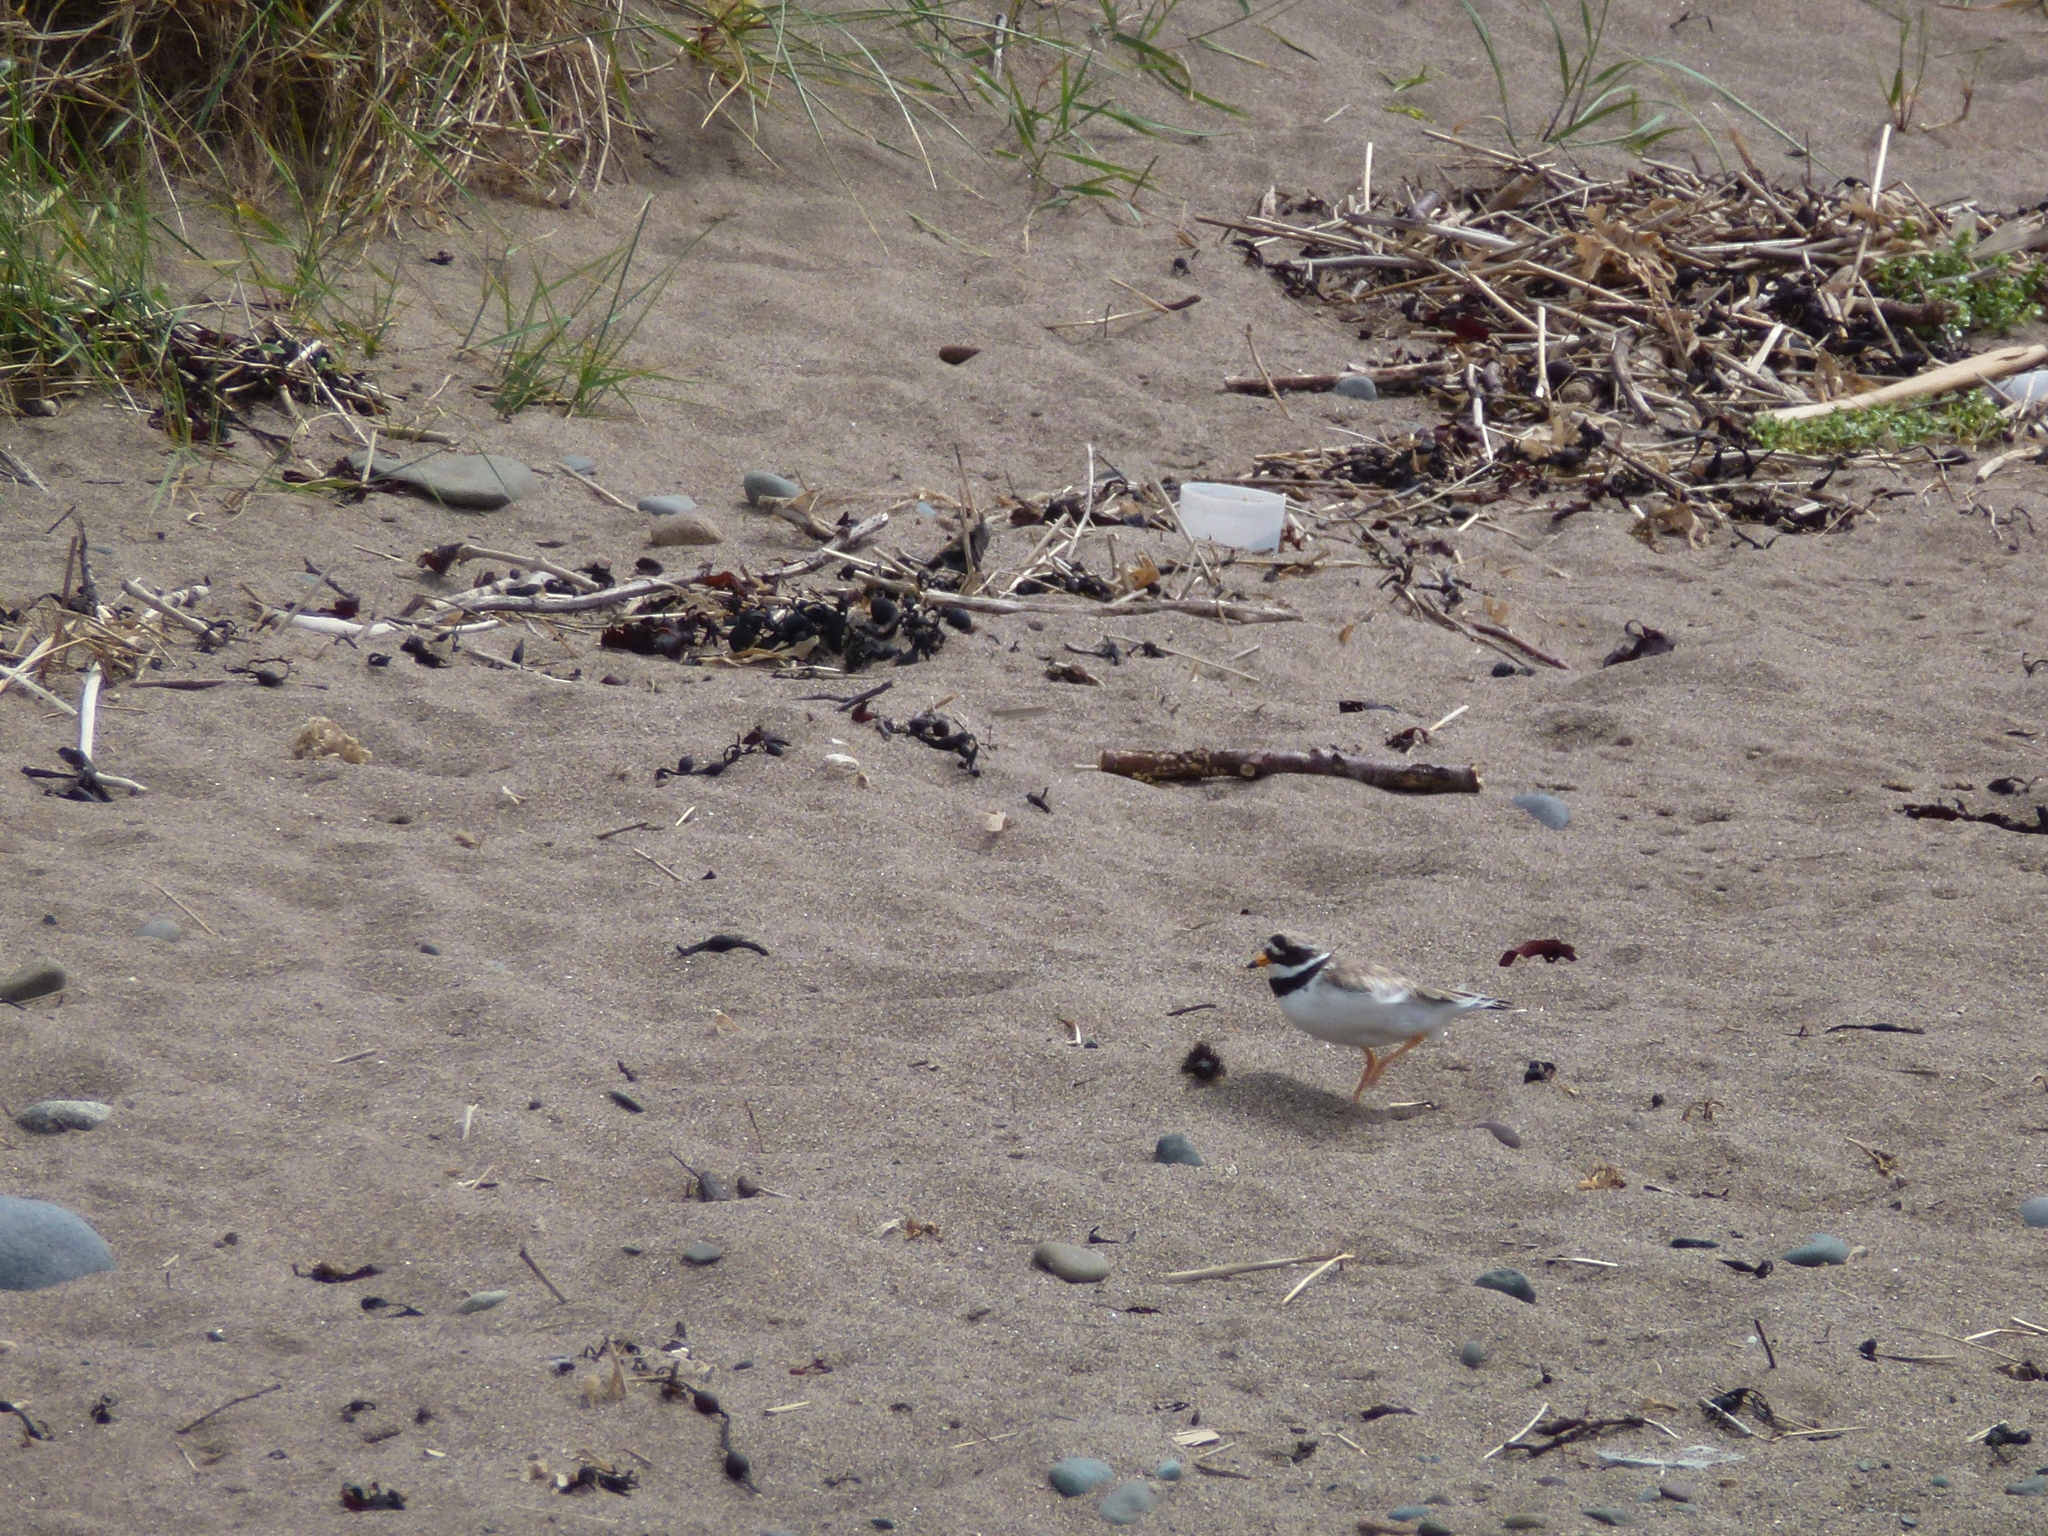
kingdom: Animalia
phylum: Chordata
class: Aves
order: Charadriiformes
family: Charadriidae
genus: Charadrius
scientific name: Charadrius hiaticula
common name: Common ringed plover
